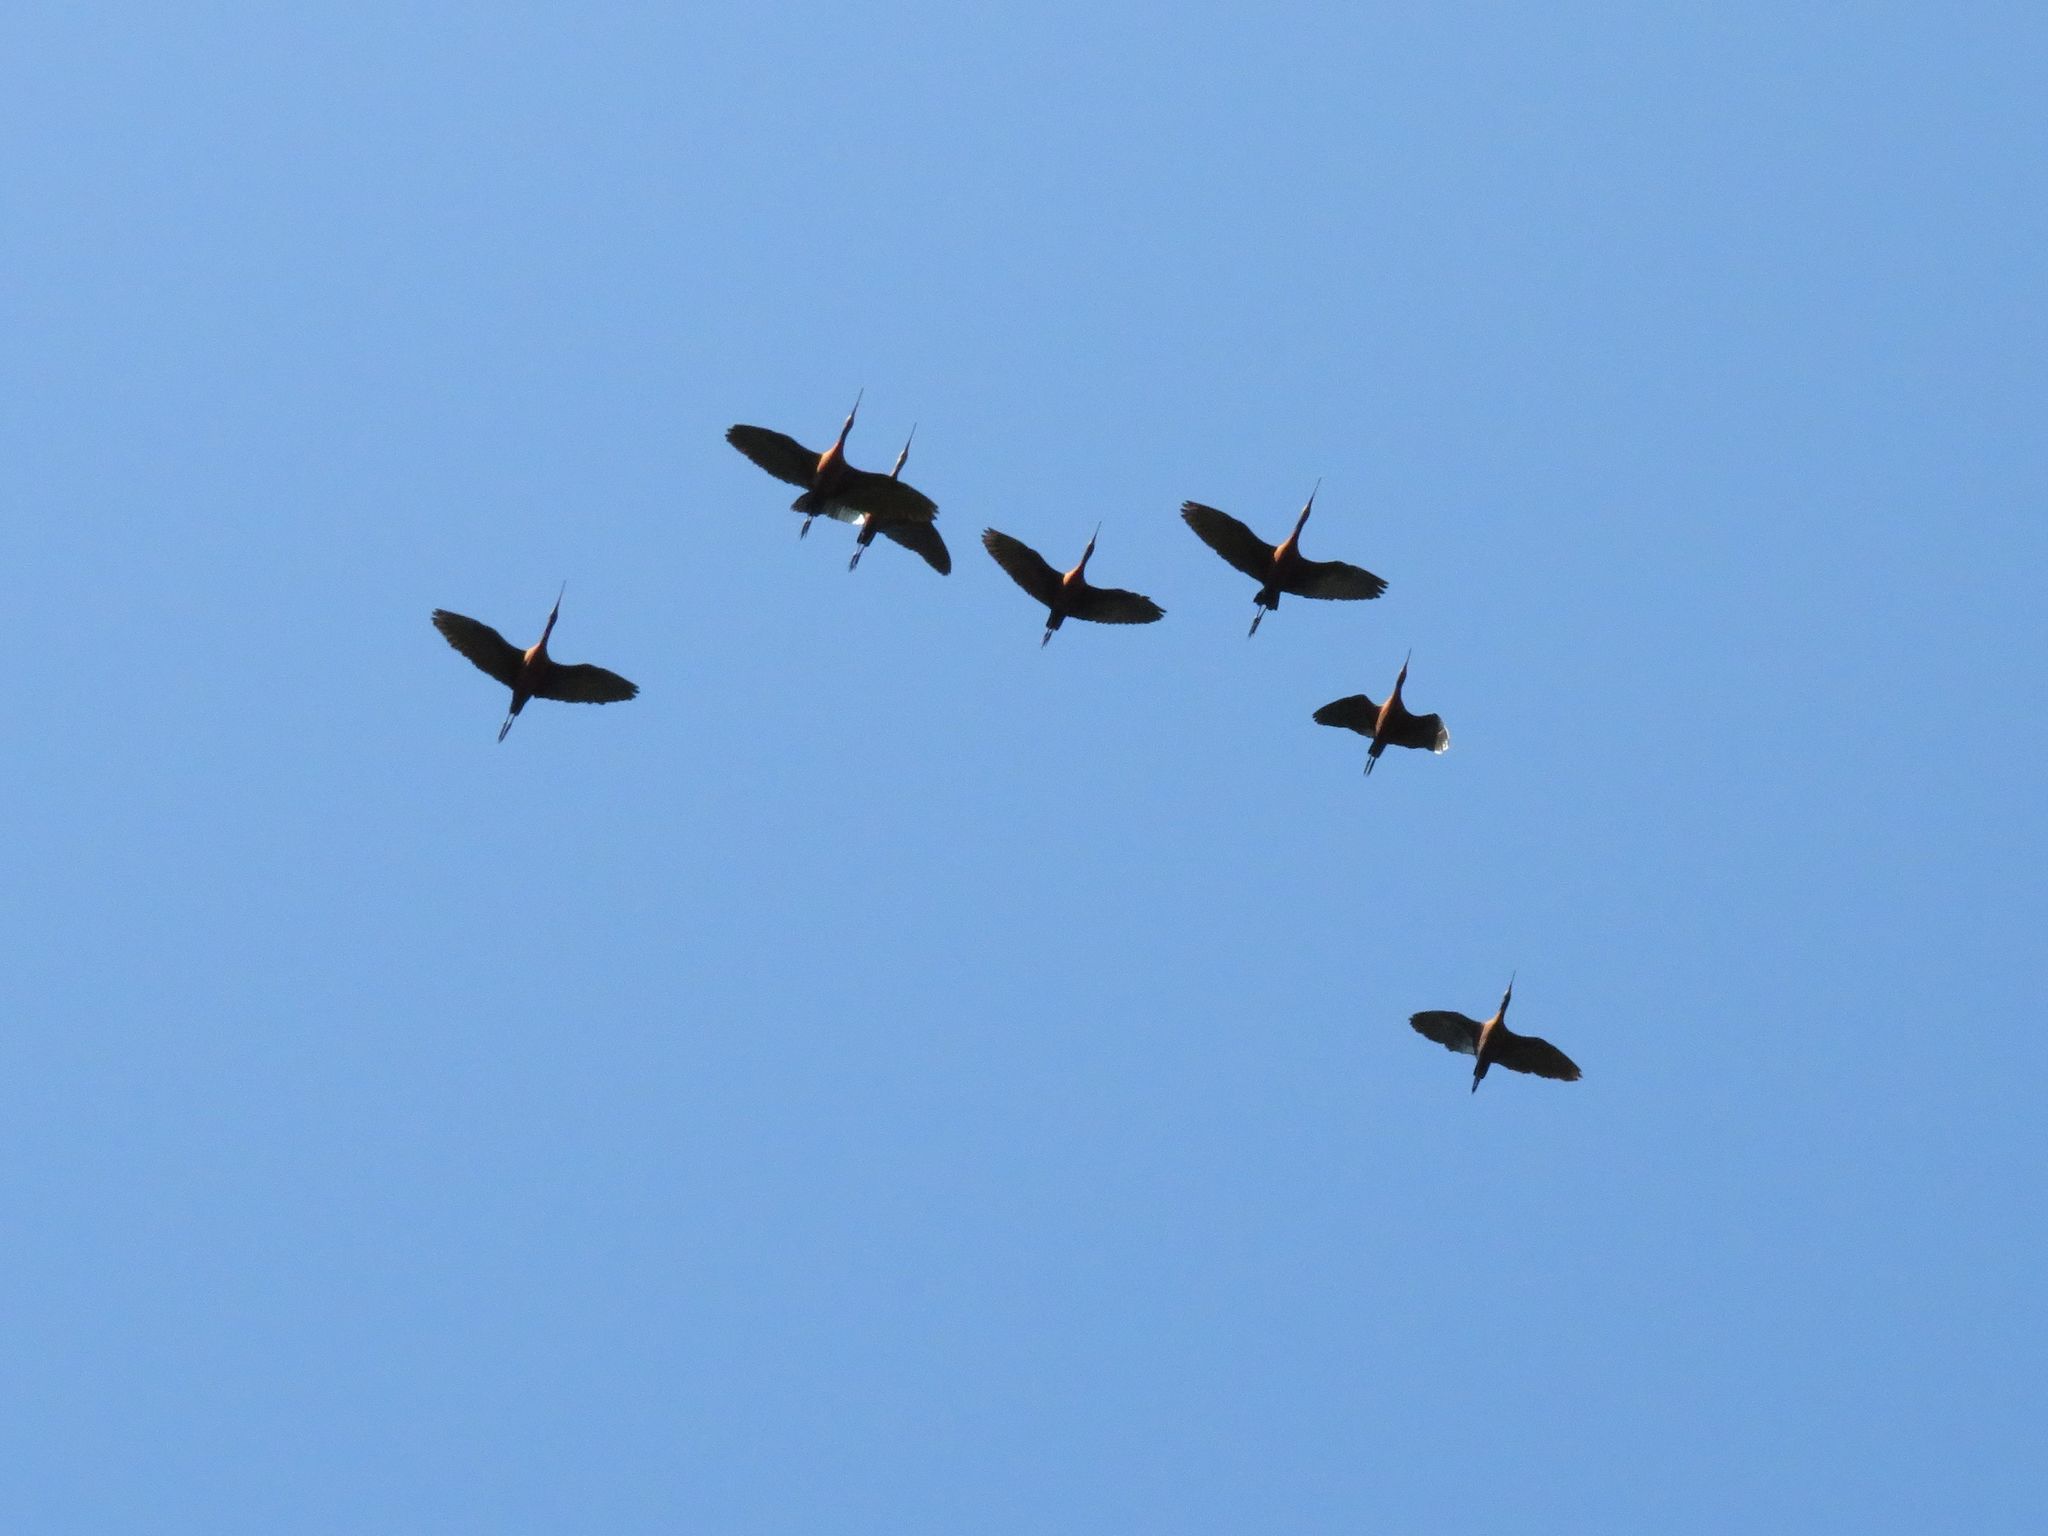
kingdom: Animalia
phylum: Chordata
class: Aves
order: Pelecaniformes
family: Threskiornithidae
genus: Plegadis
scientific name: Plegadis chihi
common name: White-faced ibis
